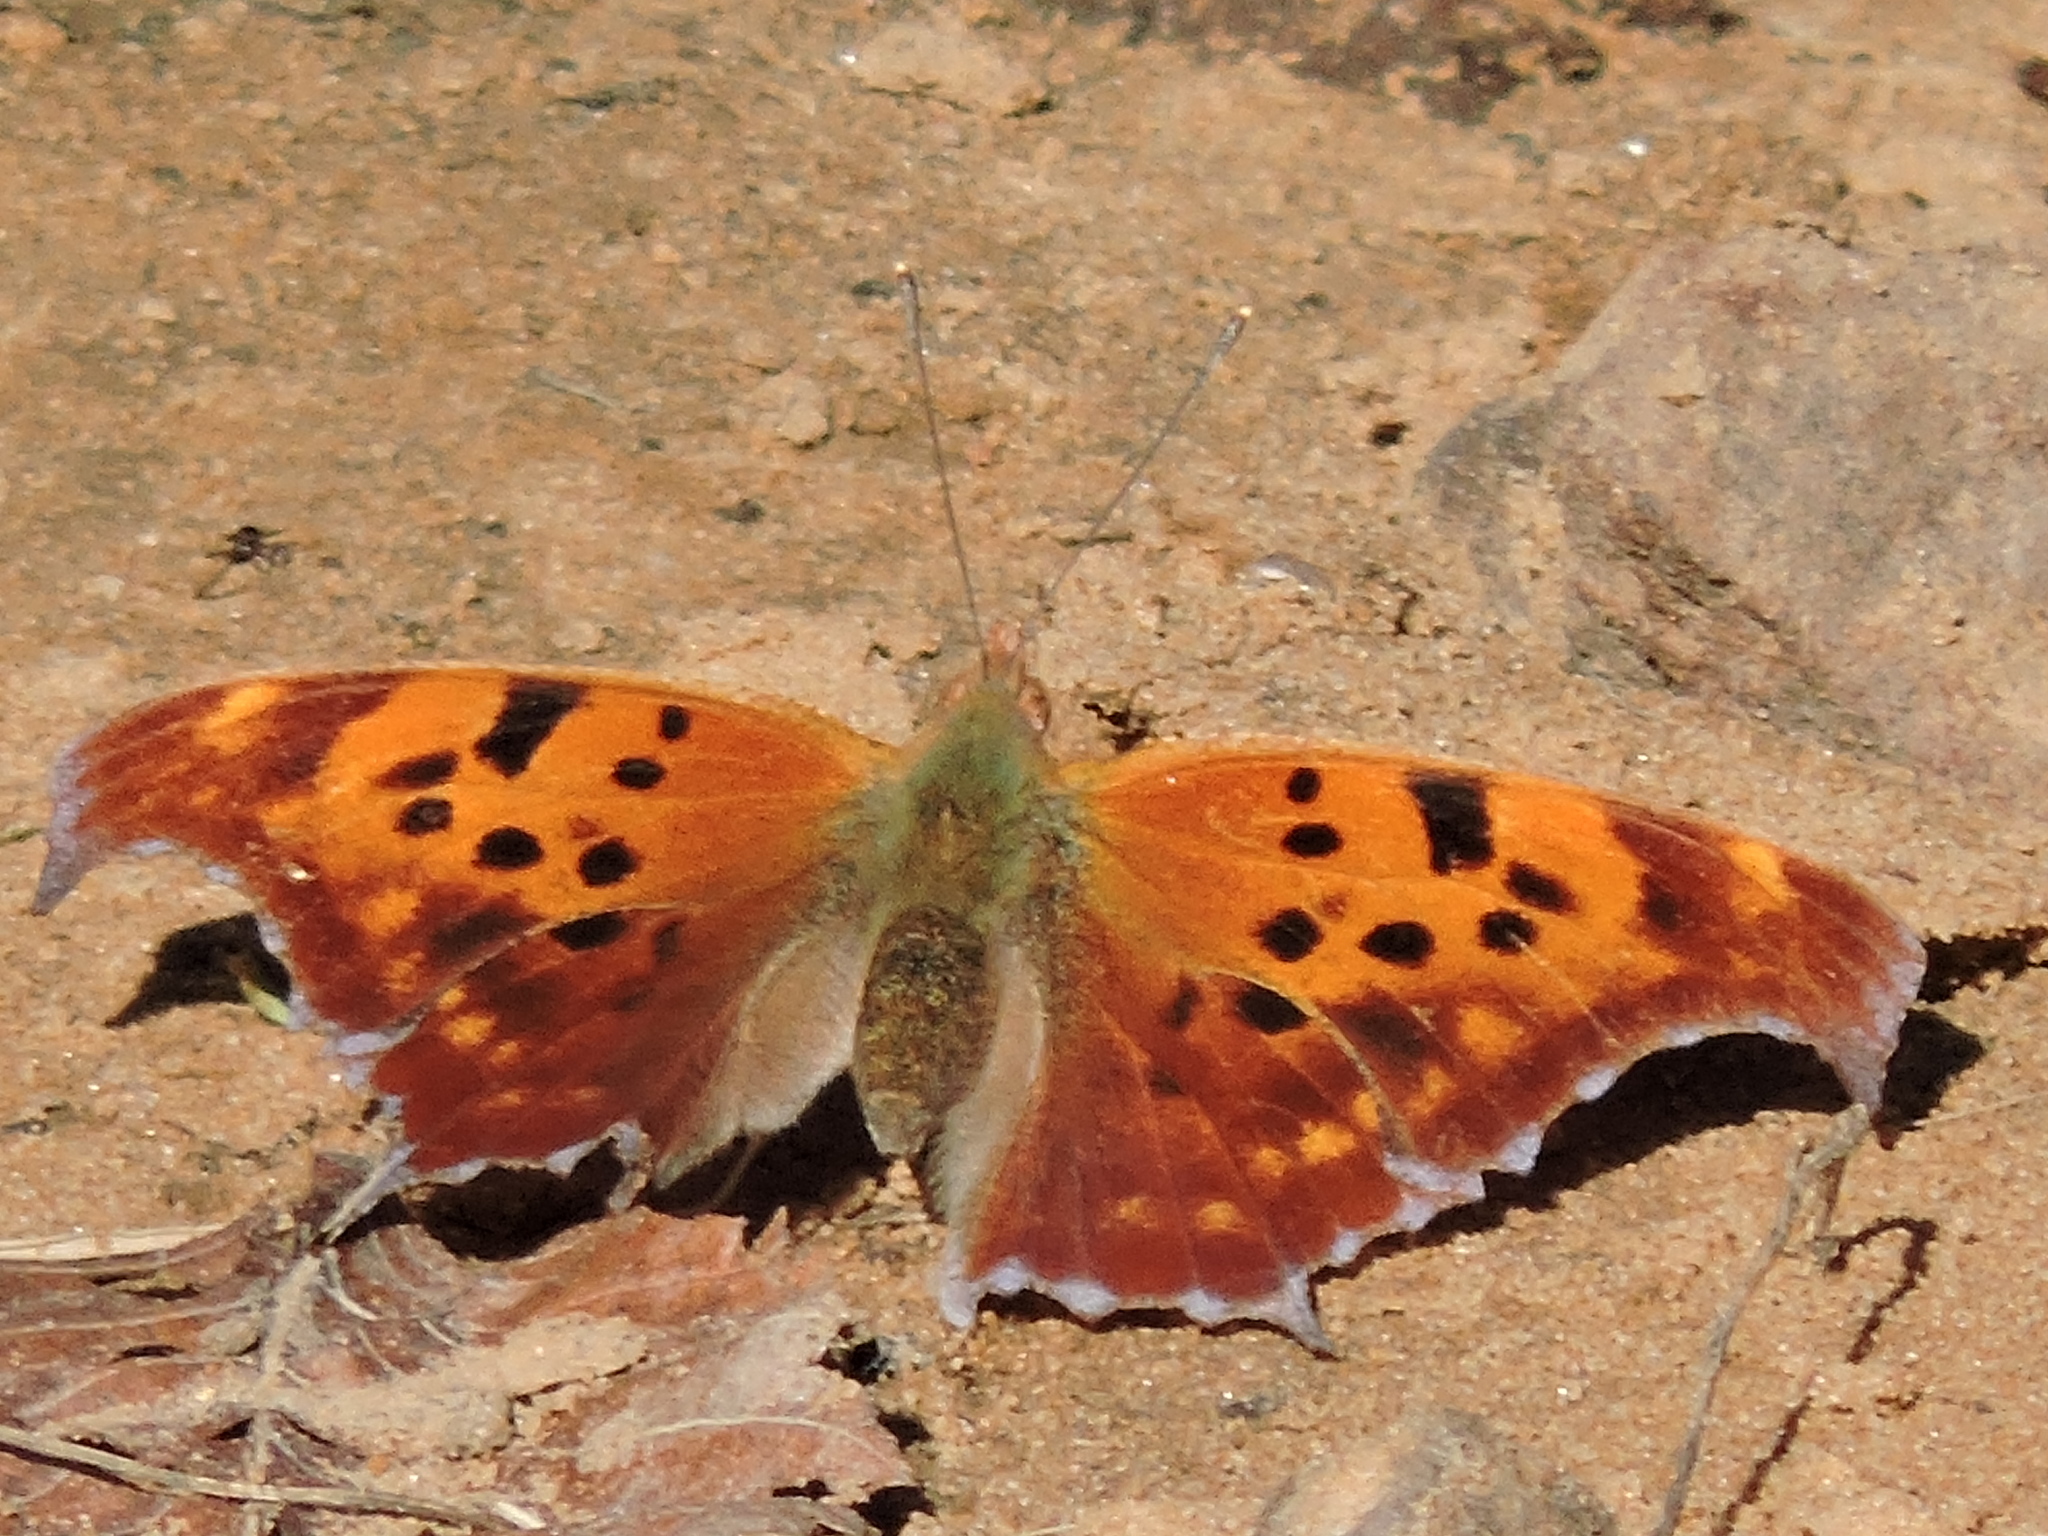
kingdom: Animalia
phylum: Arthropoda
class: Insecta
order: Lepidoptera
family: Nymphalidae
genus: Polygonia
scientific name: Polygonia interrogationis
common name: Question mark
